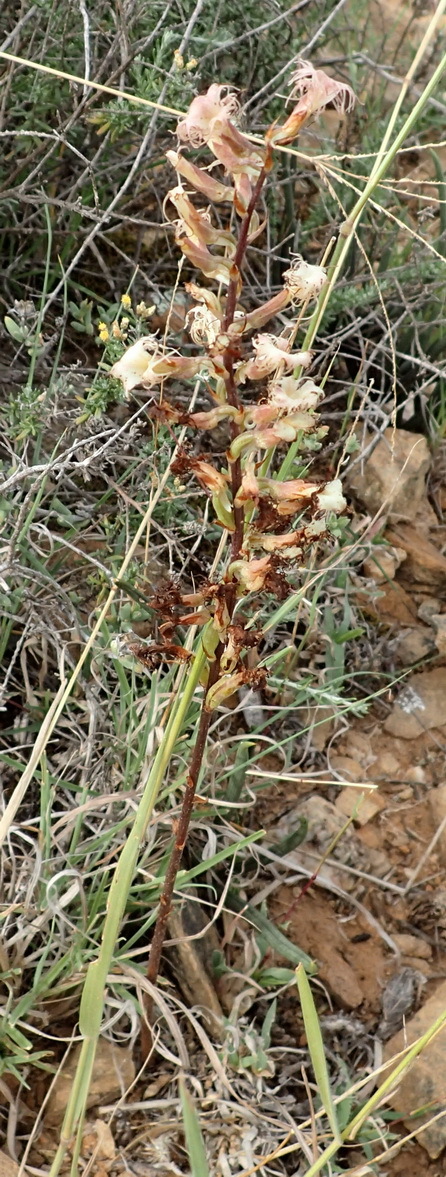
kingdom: Plantae
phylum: Tracheophyta
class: Liliopsida
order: Asparagales
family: Orchidaceae
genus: Holothrix
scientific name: Holothrix schlechteriana
